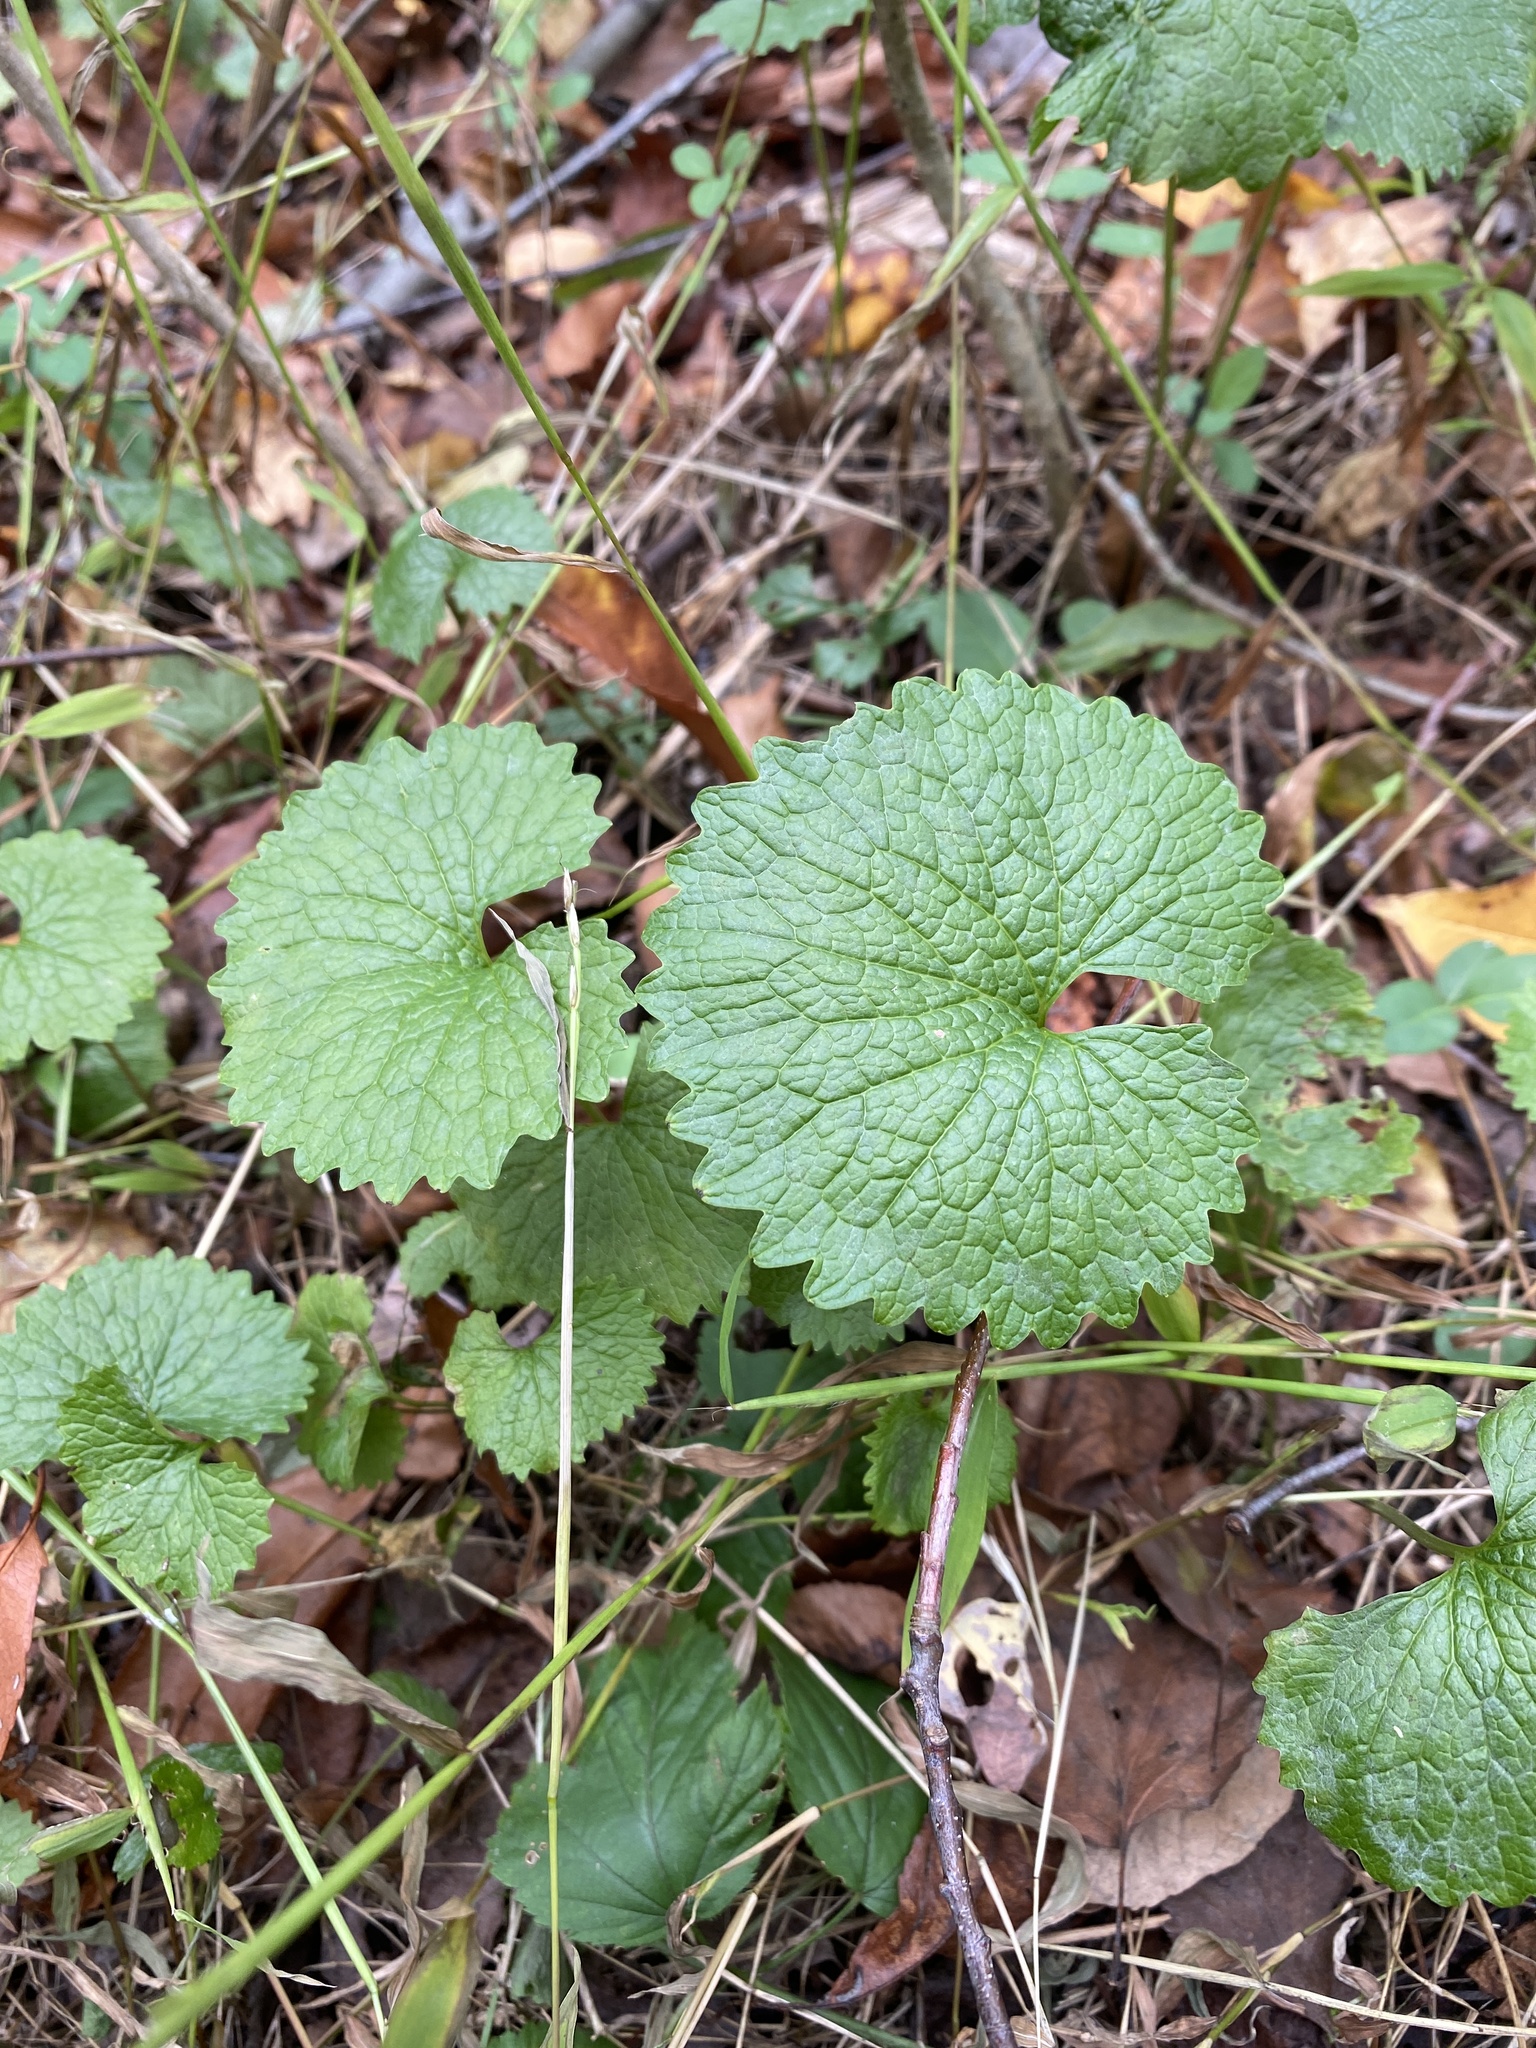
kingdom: Plantae
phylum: Tracheophyta
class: Magnoliopsida
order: Brassicales
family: Brassicaceae
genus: Alliaria
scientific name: Alliaria petiolata
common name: Garlic mustard
